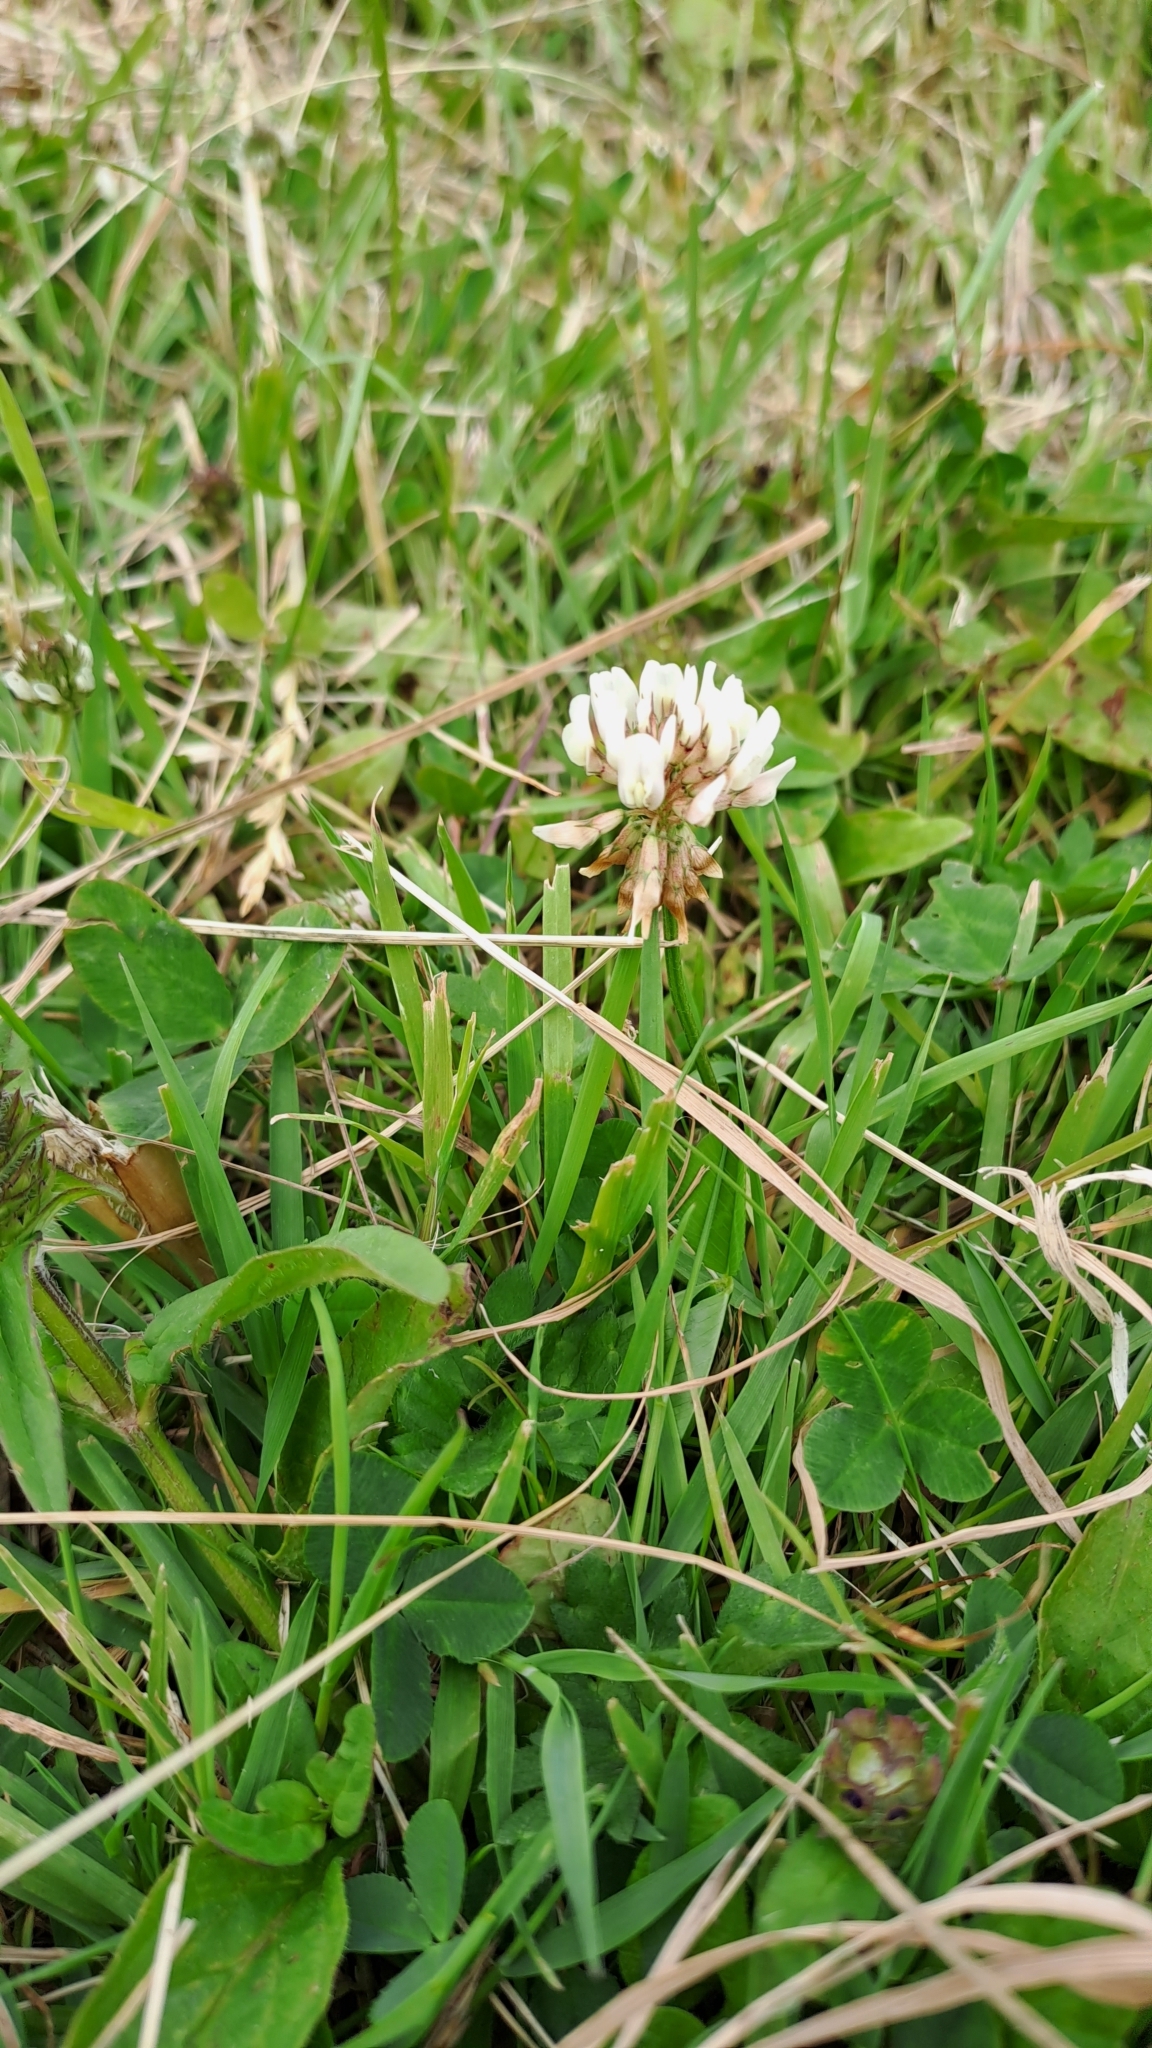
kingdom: Plantae
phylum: Tracheophyta
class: Magnoliopsida
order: Fabales
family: Fabaceae
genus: Trifolium
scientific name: Trifolium repens
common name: White clover
